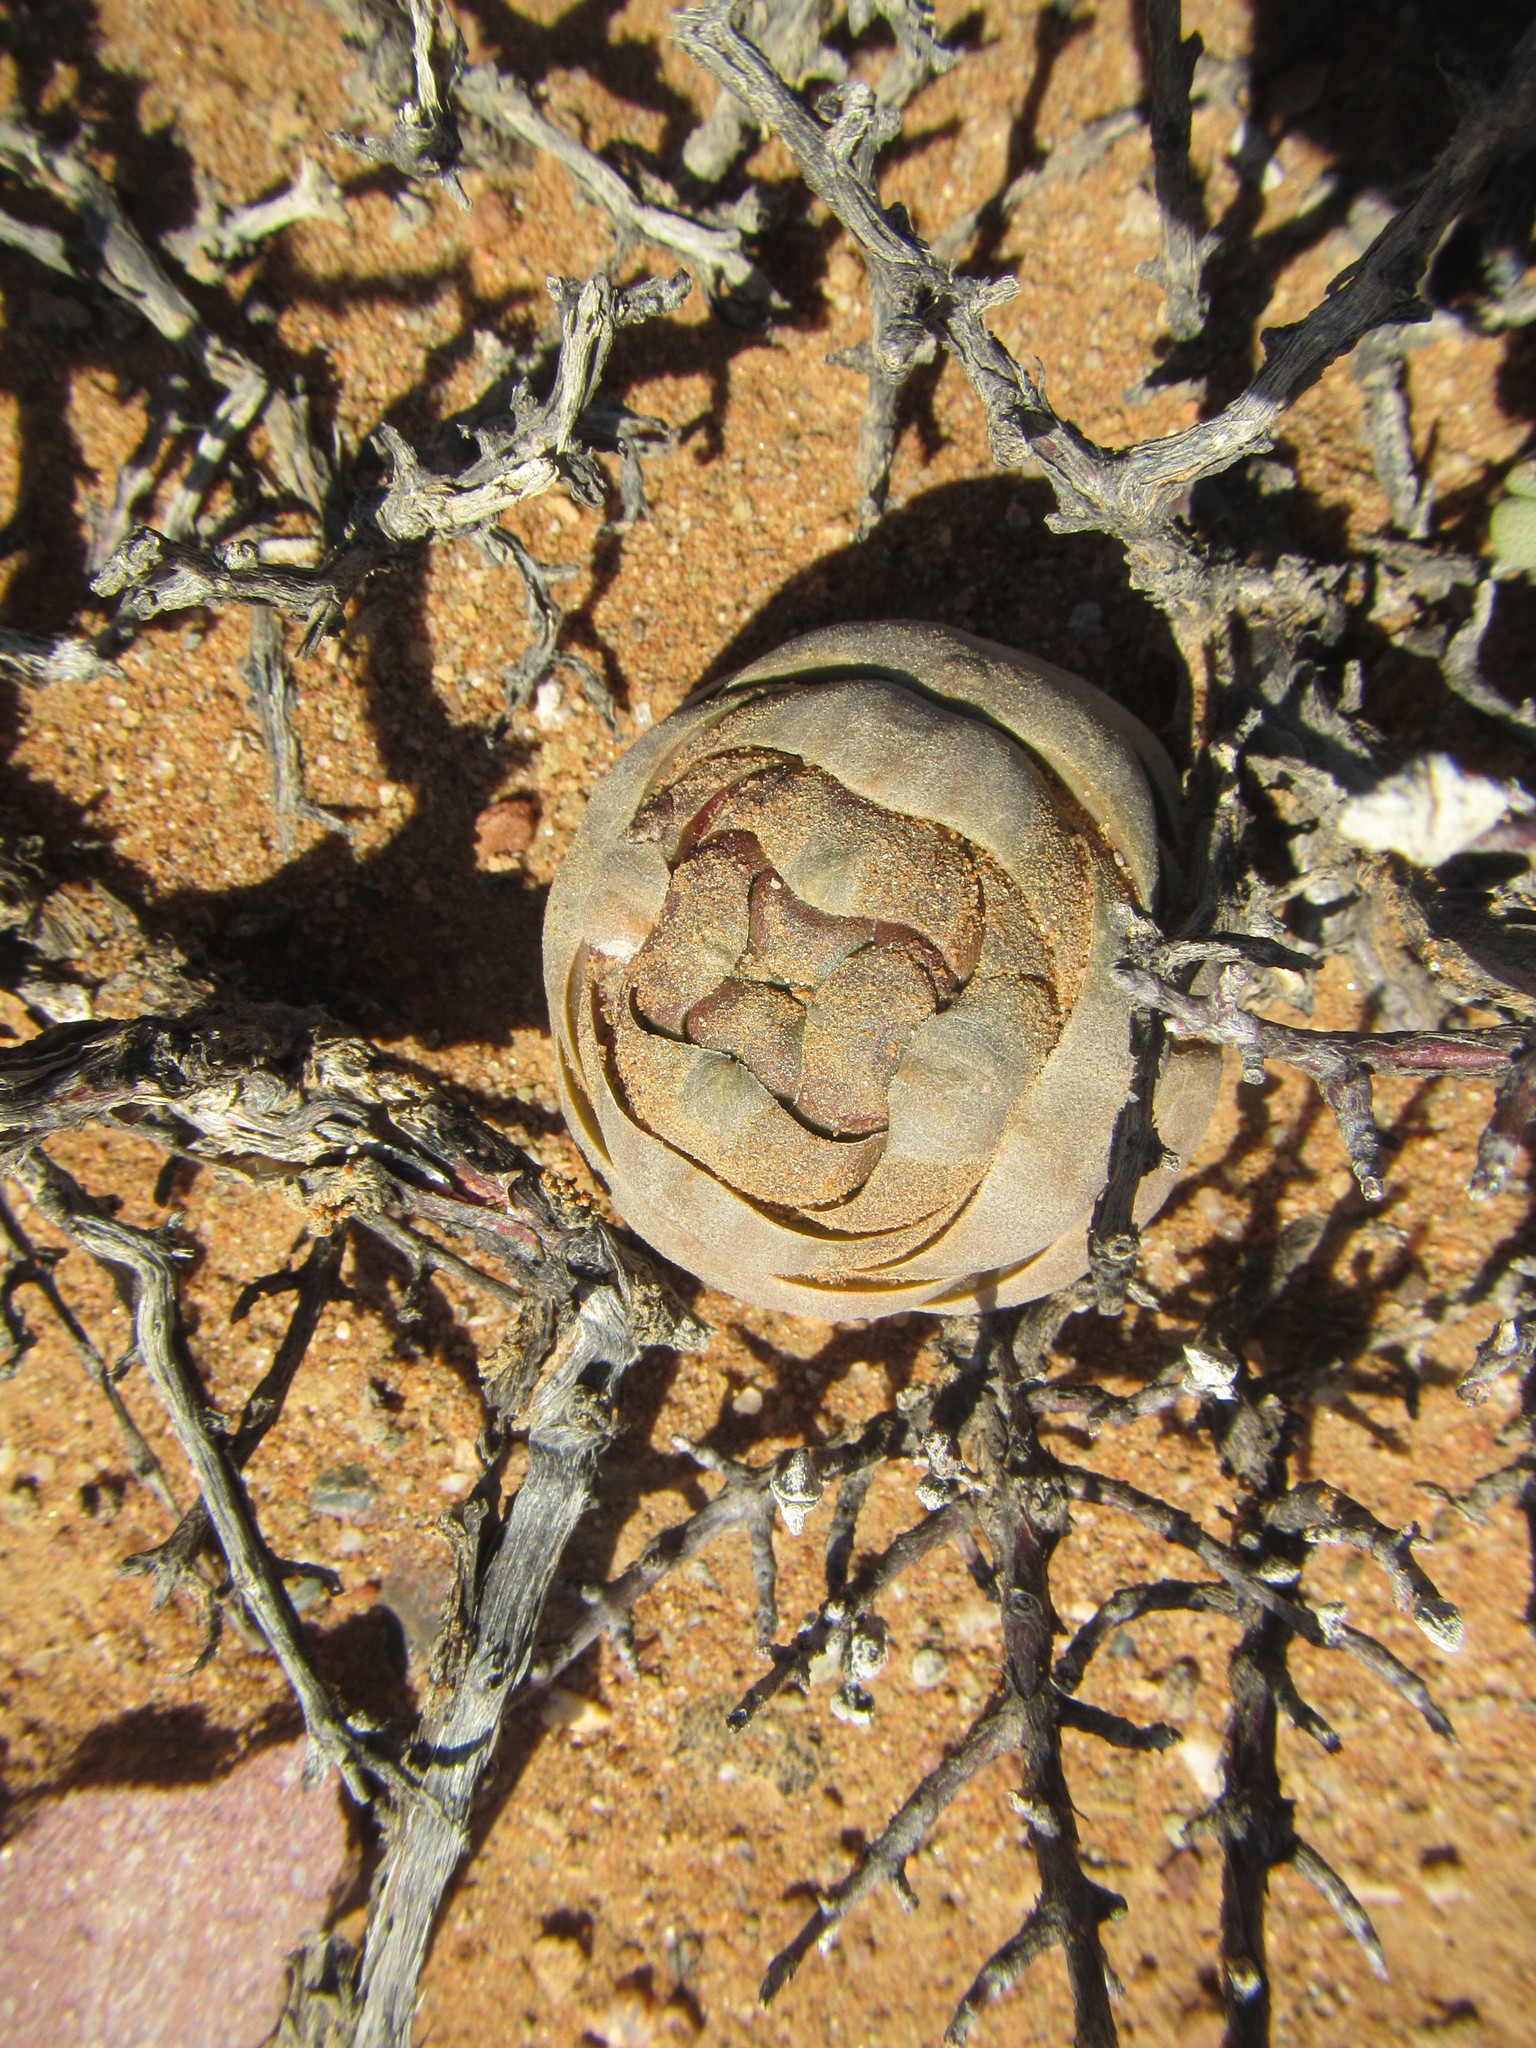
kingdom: Plantae
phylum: Tracheophyta
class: Magnoliopsida
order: Saxifragales
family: Crassulaceae
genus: Crassula
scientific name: Crassula columnaris
